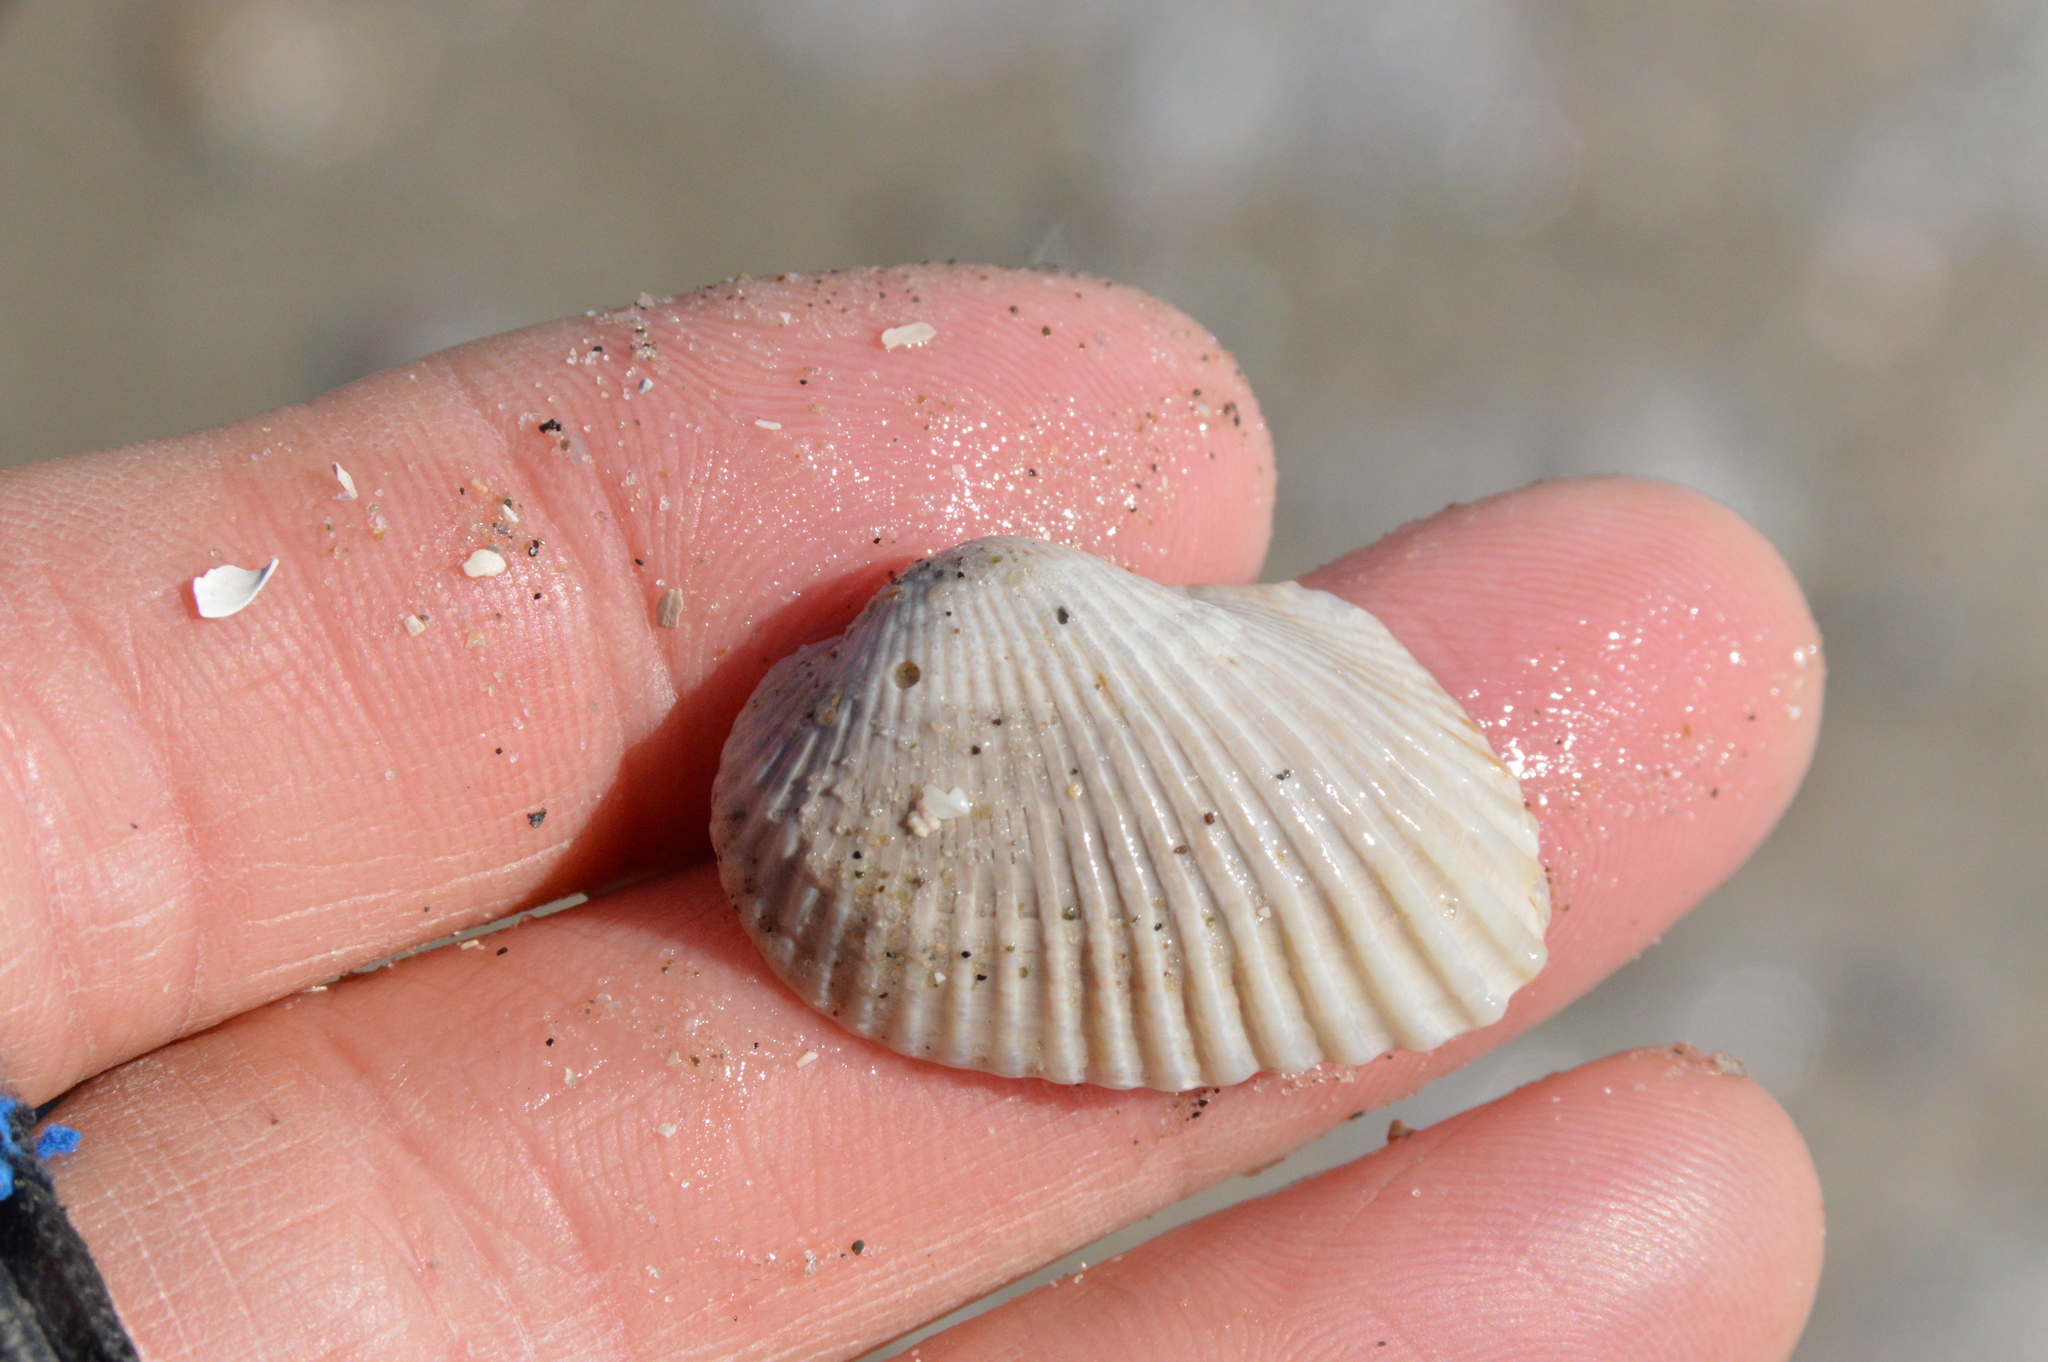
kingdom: Animalia
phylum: Mollusca
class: Bivalvia
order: Arcida
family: Arcidae
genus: Anadara
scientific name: Anadara transversa
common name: Transverse ark
